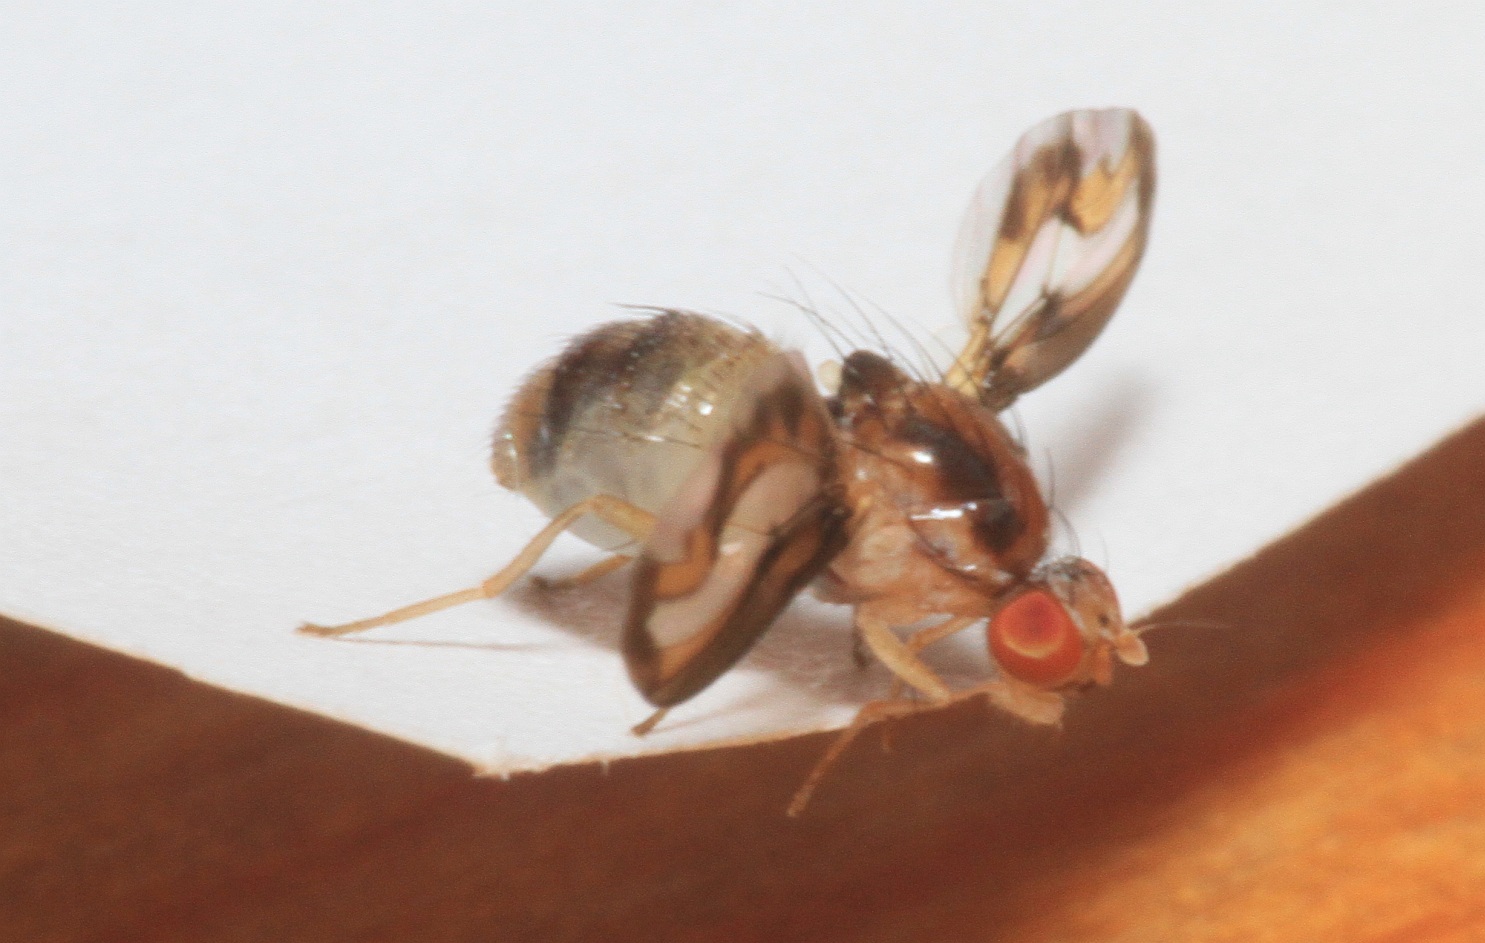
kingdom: Animalia
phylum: Arthropoda
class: Insecta
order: Diptera
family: Pallopteridae
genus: Toxonevra
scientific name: Toxonevra muliebris
